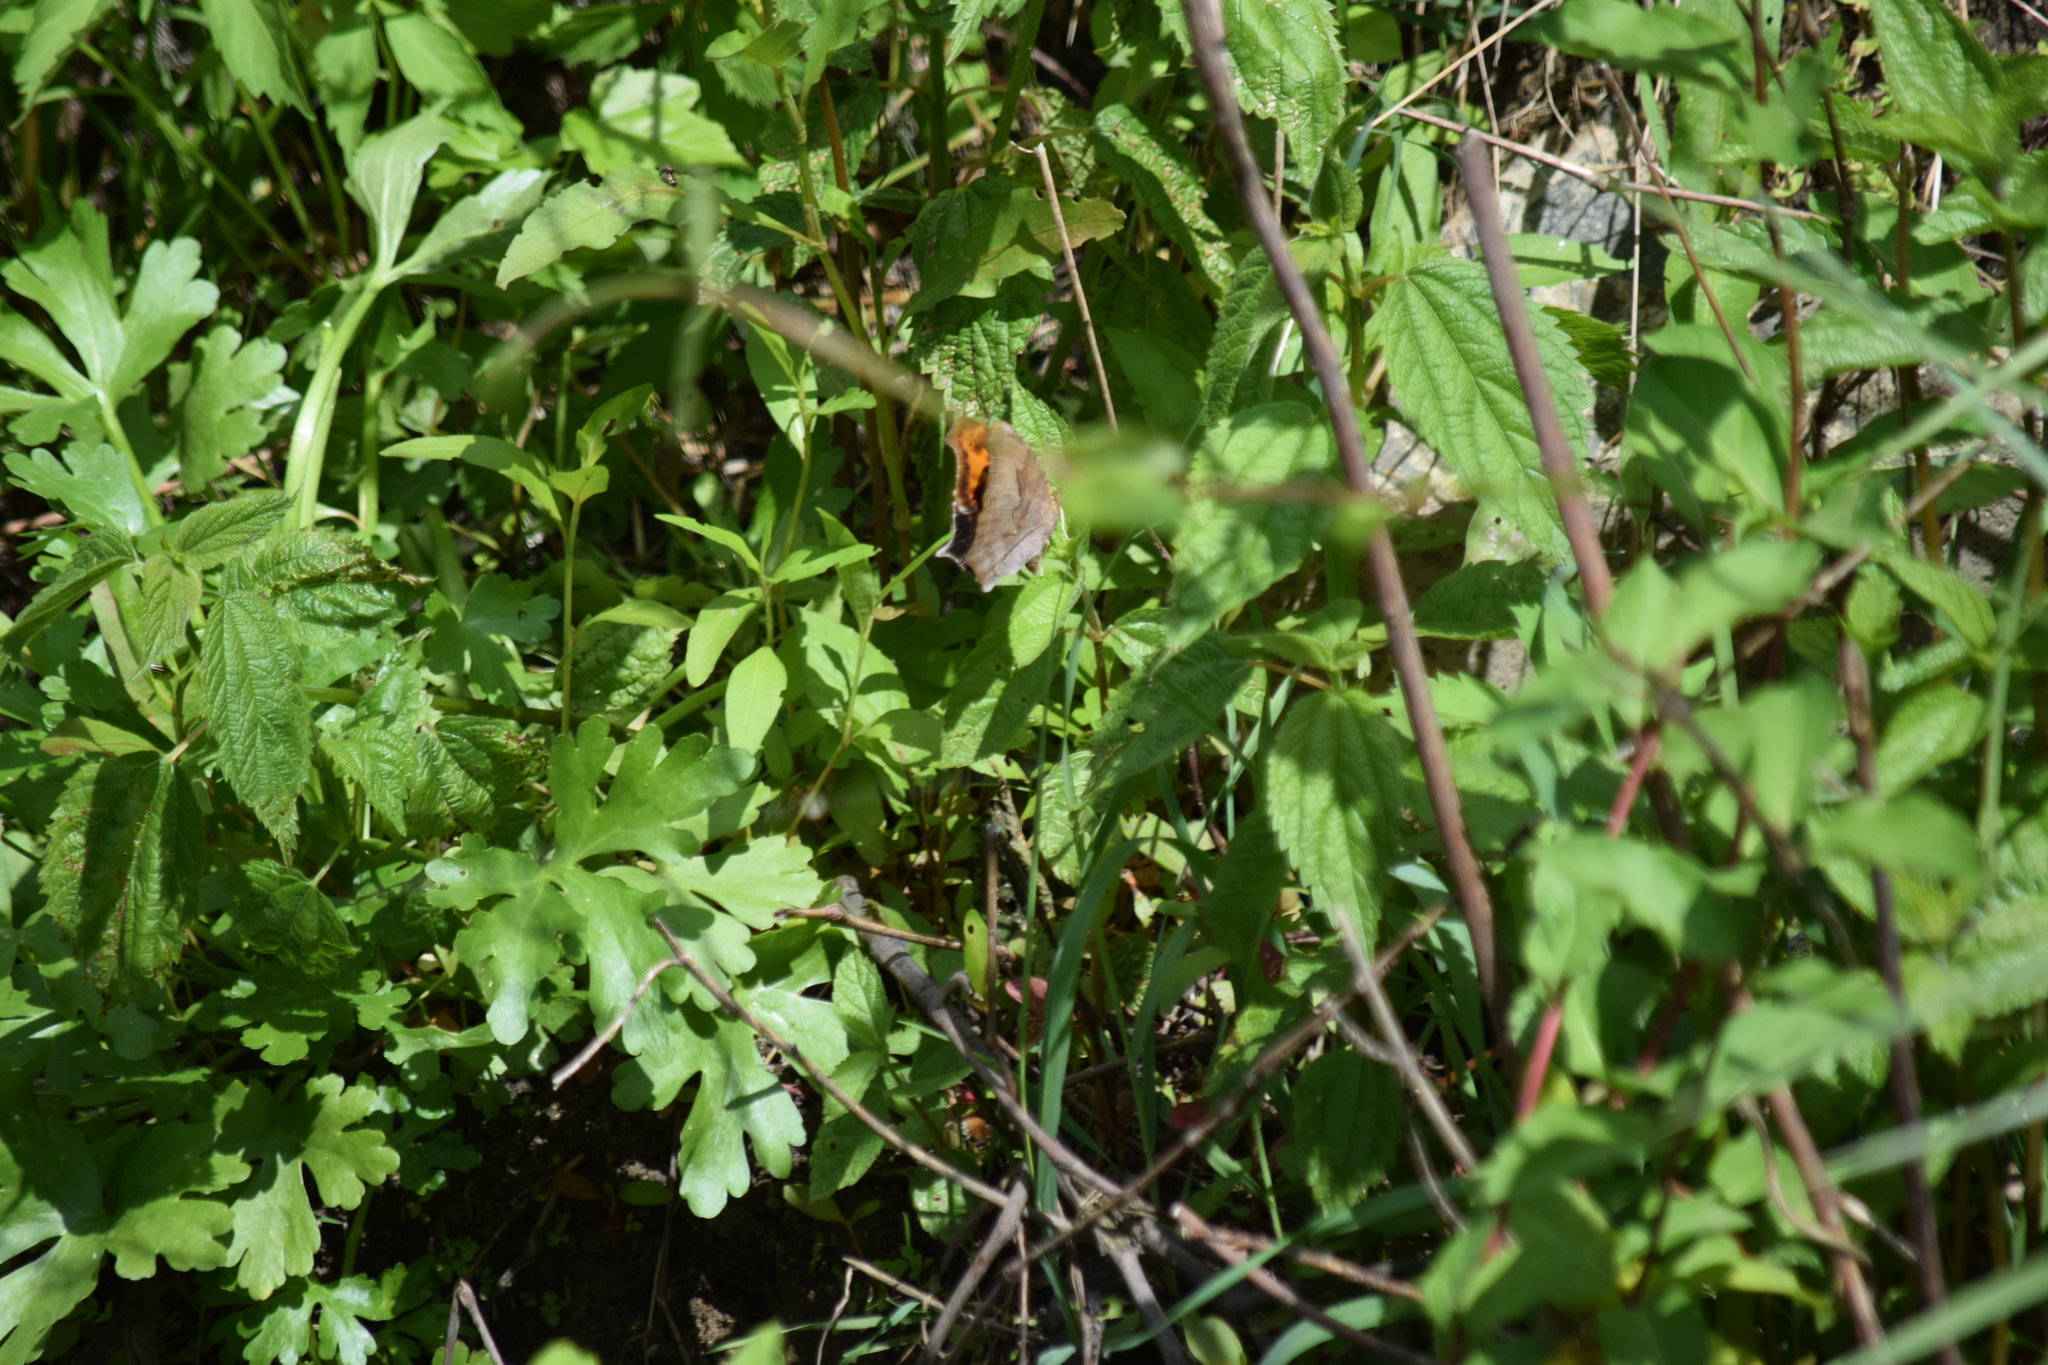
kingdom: Animalia
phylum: Arthropoda
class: Insecta
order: Lepidoptera
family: Nymphalidae
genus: Polygonia
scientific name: Polygonia interrogationis
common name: Question mark
